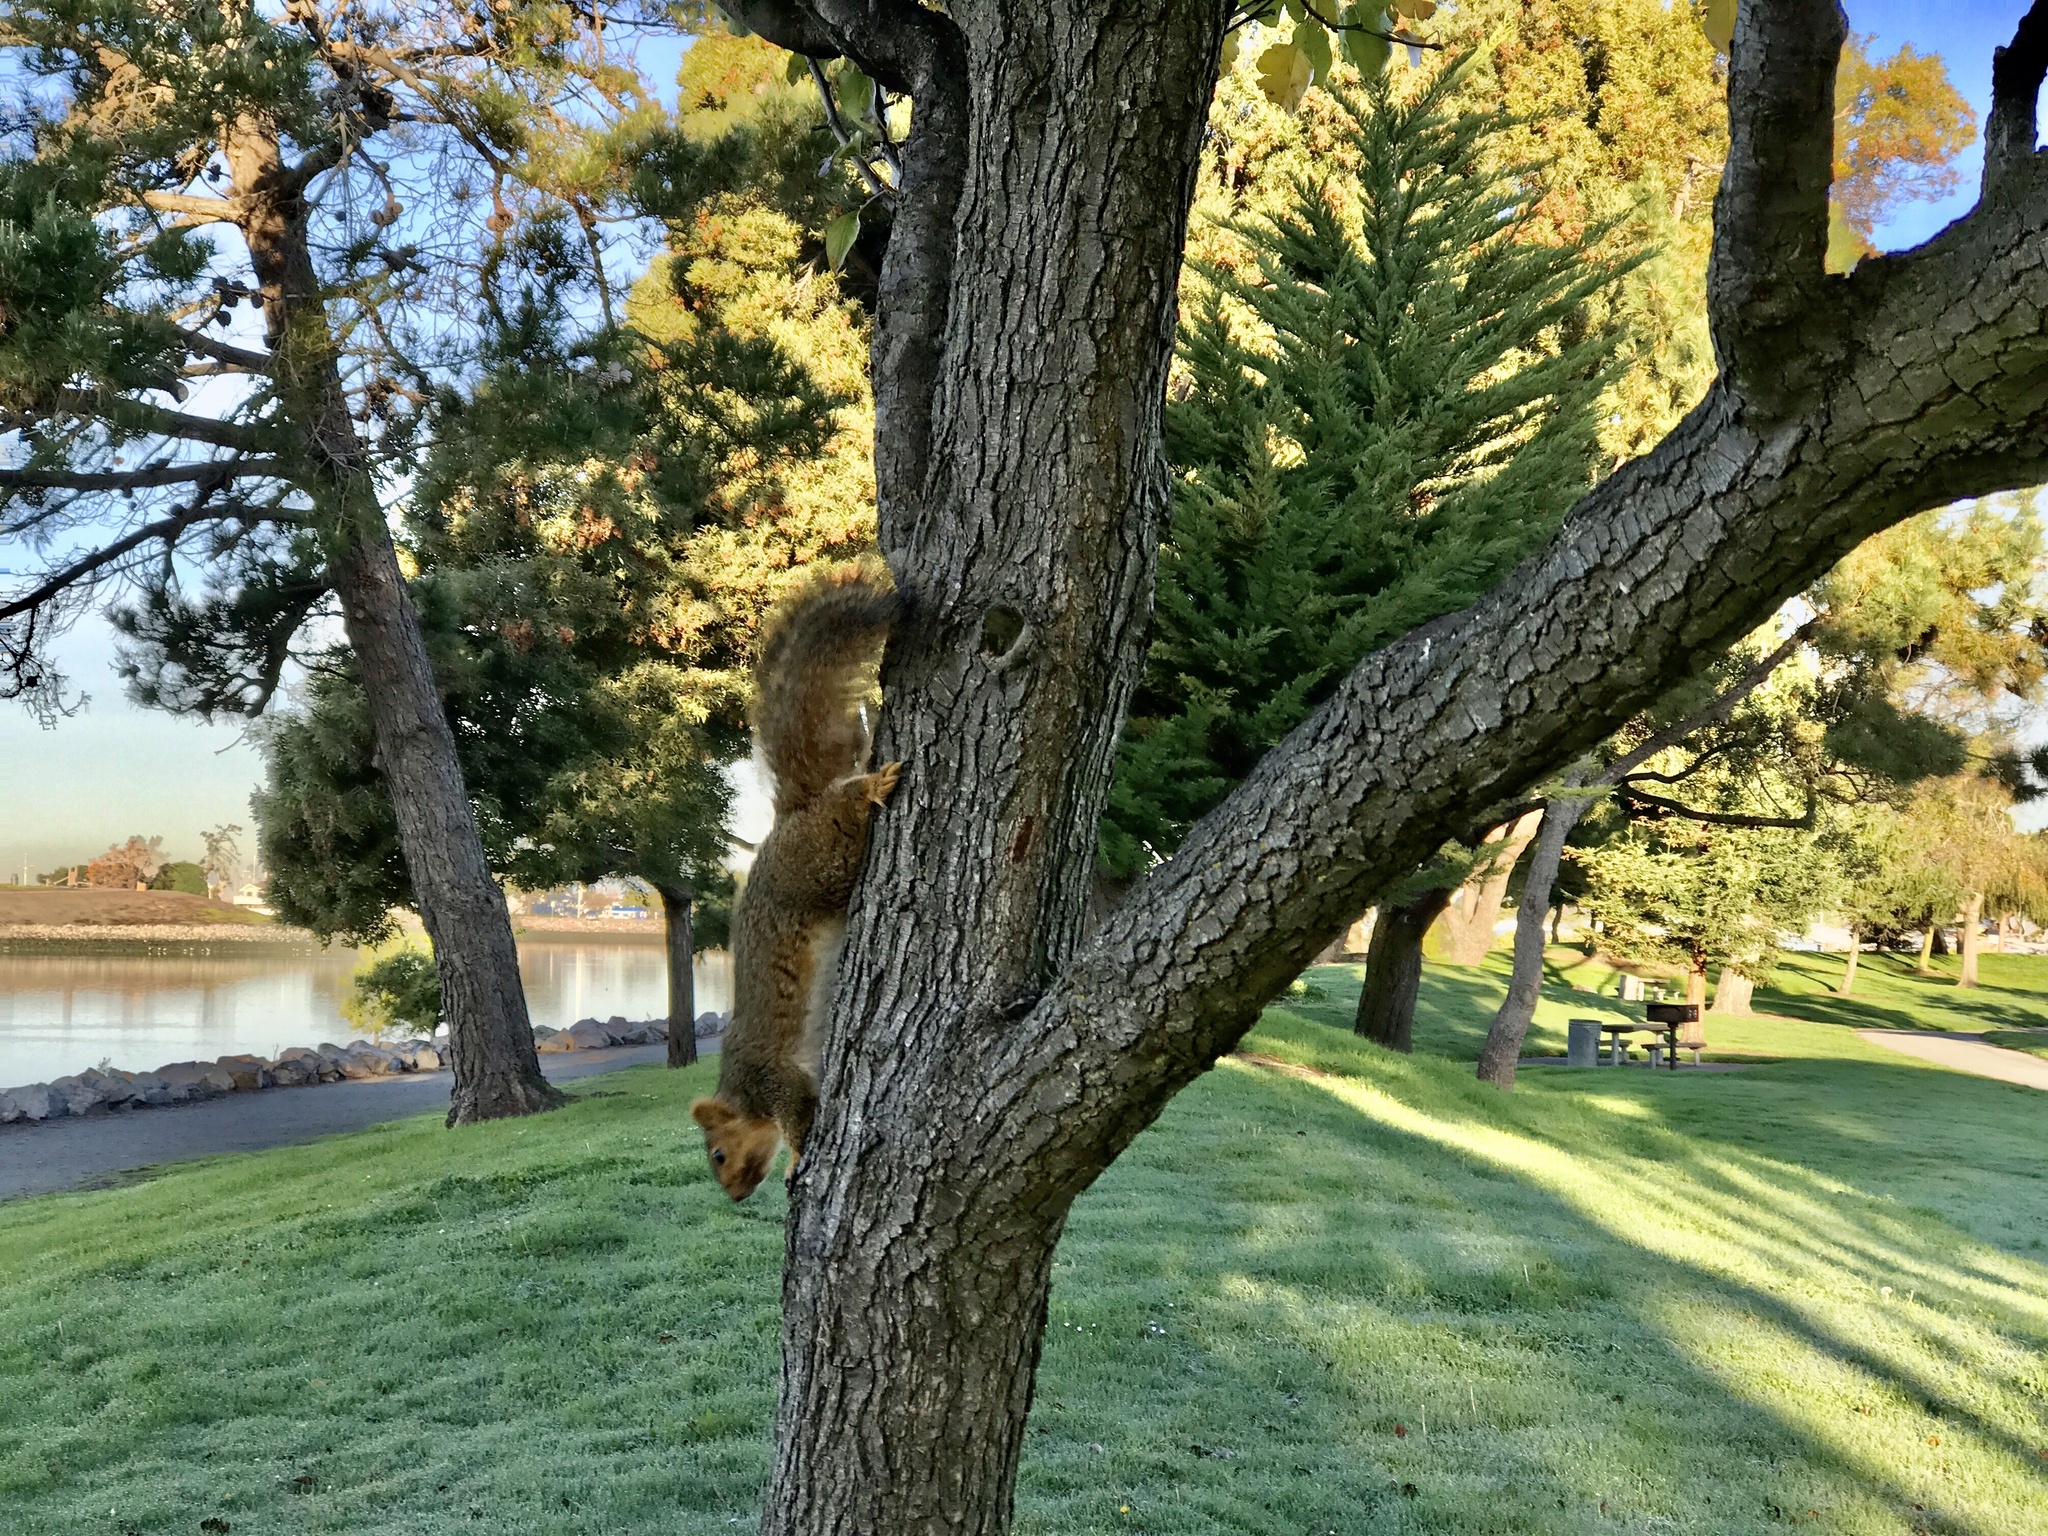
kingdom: Animalia
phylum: Chordata
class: Mammalia
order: Rodentia
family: Sciuridae
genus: Sciurus
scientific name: Sciurus niger
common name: Fox squirrel
